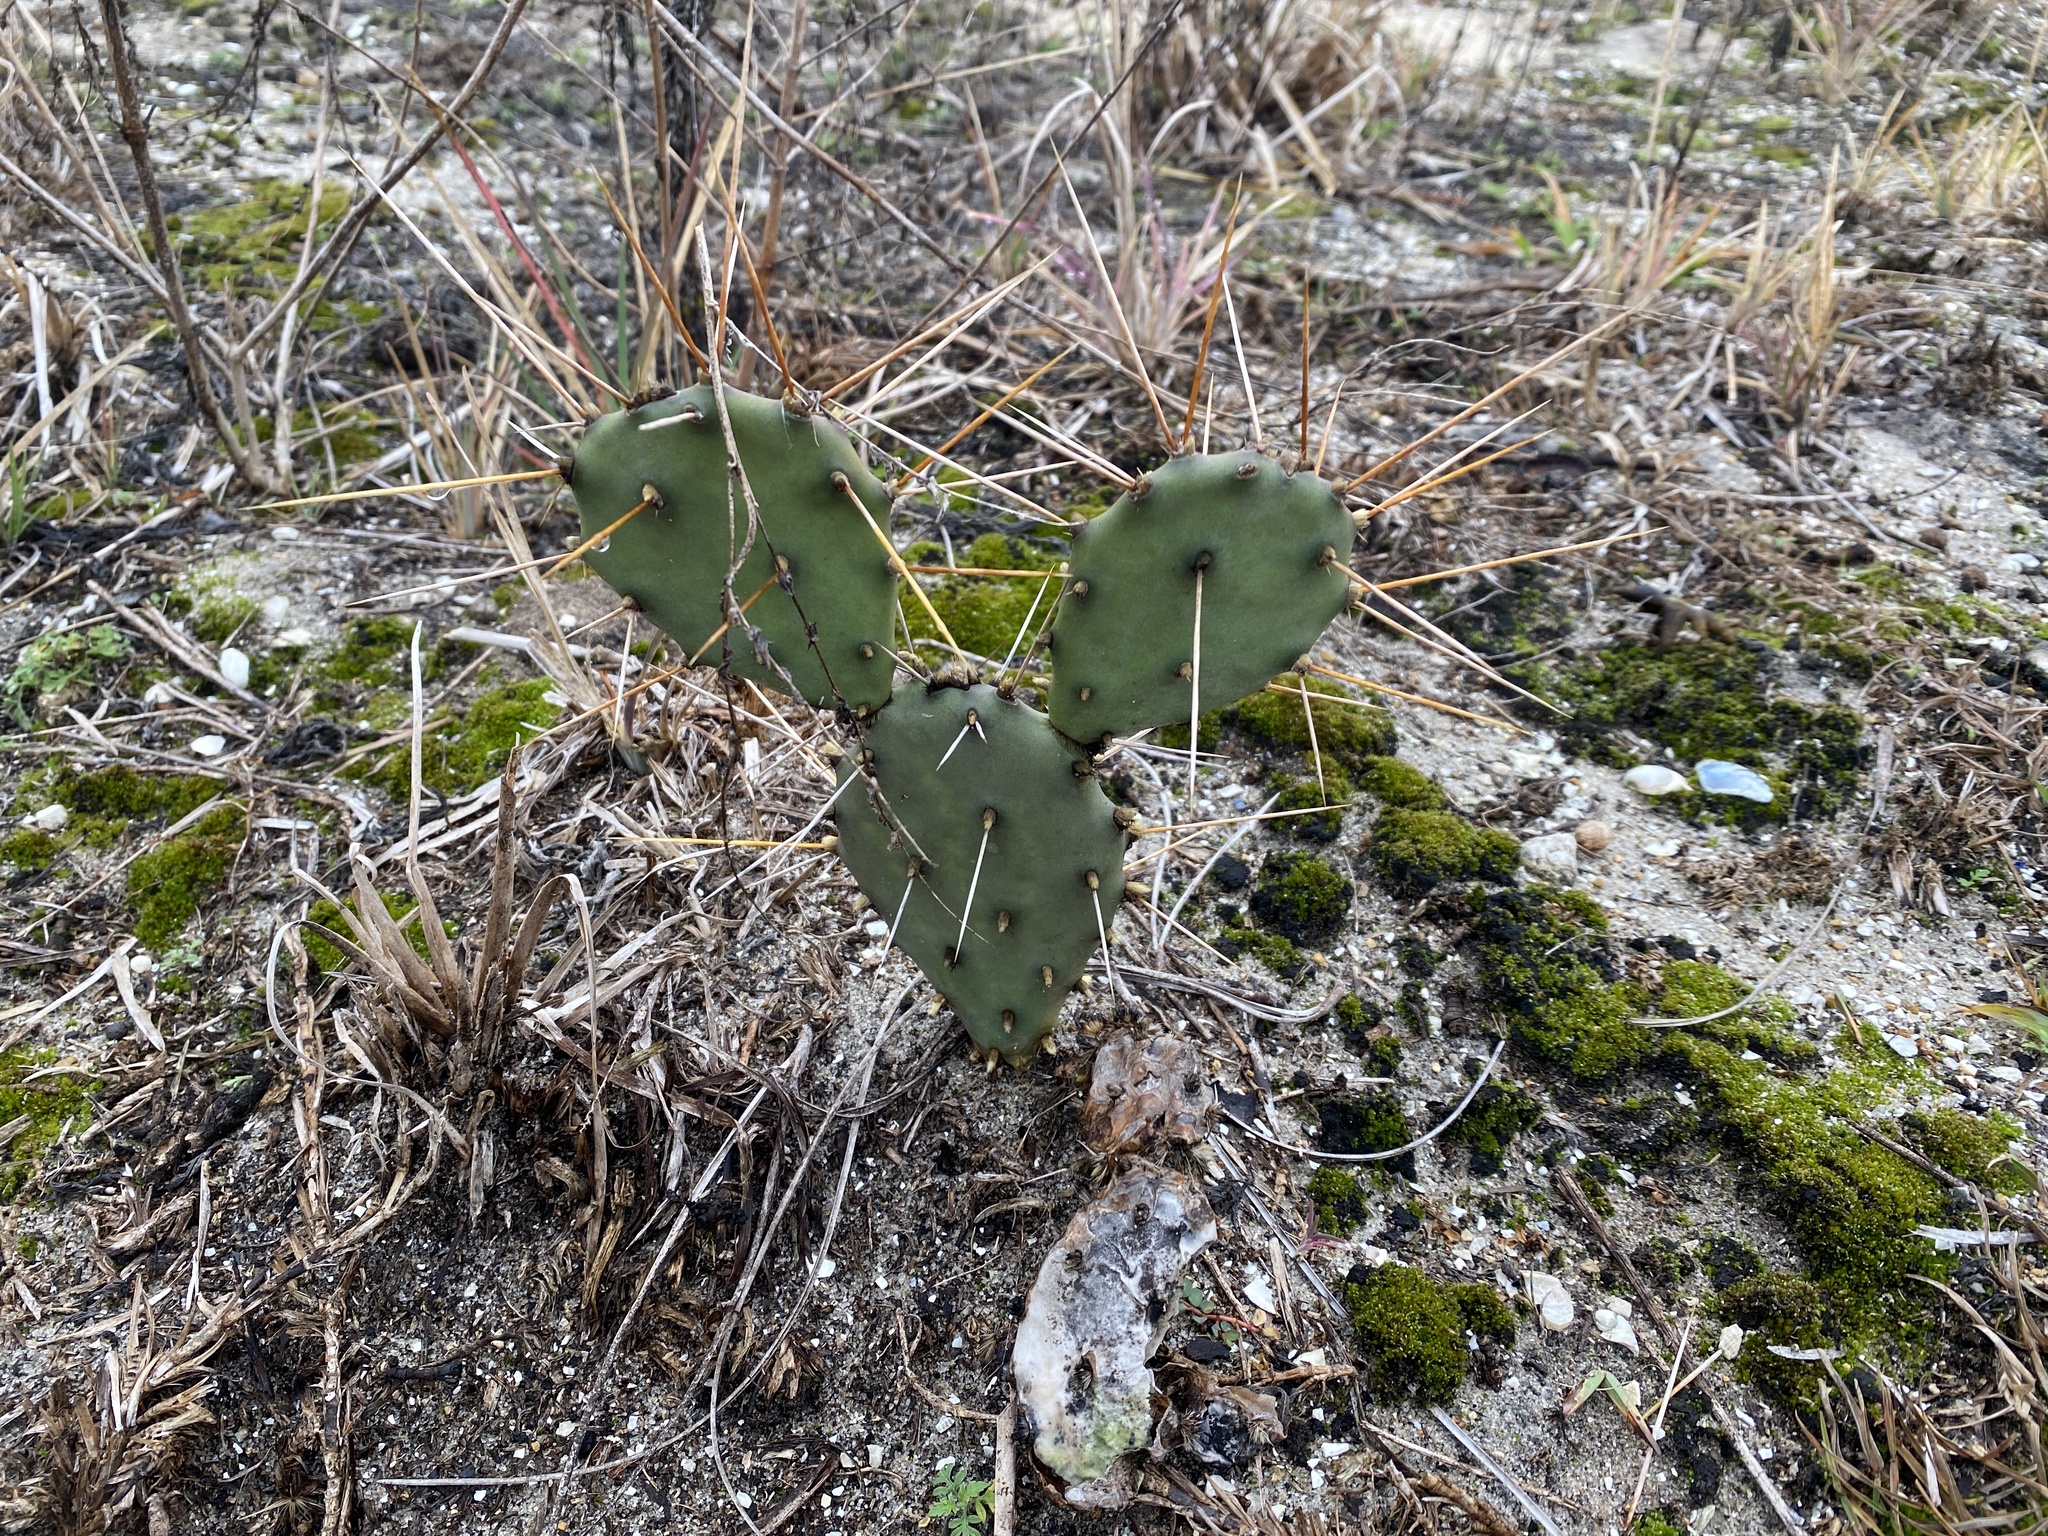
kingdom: Plantae
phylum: Tracheophyta
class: Magnoliopsida
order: Caryophyllales
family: Cactaceae
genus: Opuntia
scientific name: Opuntia austrina
